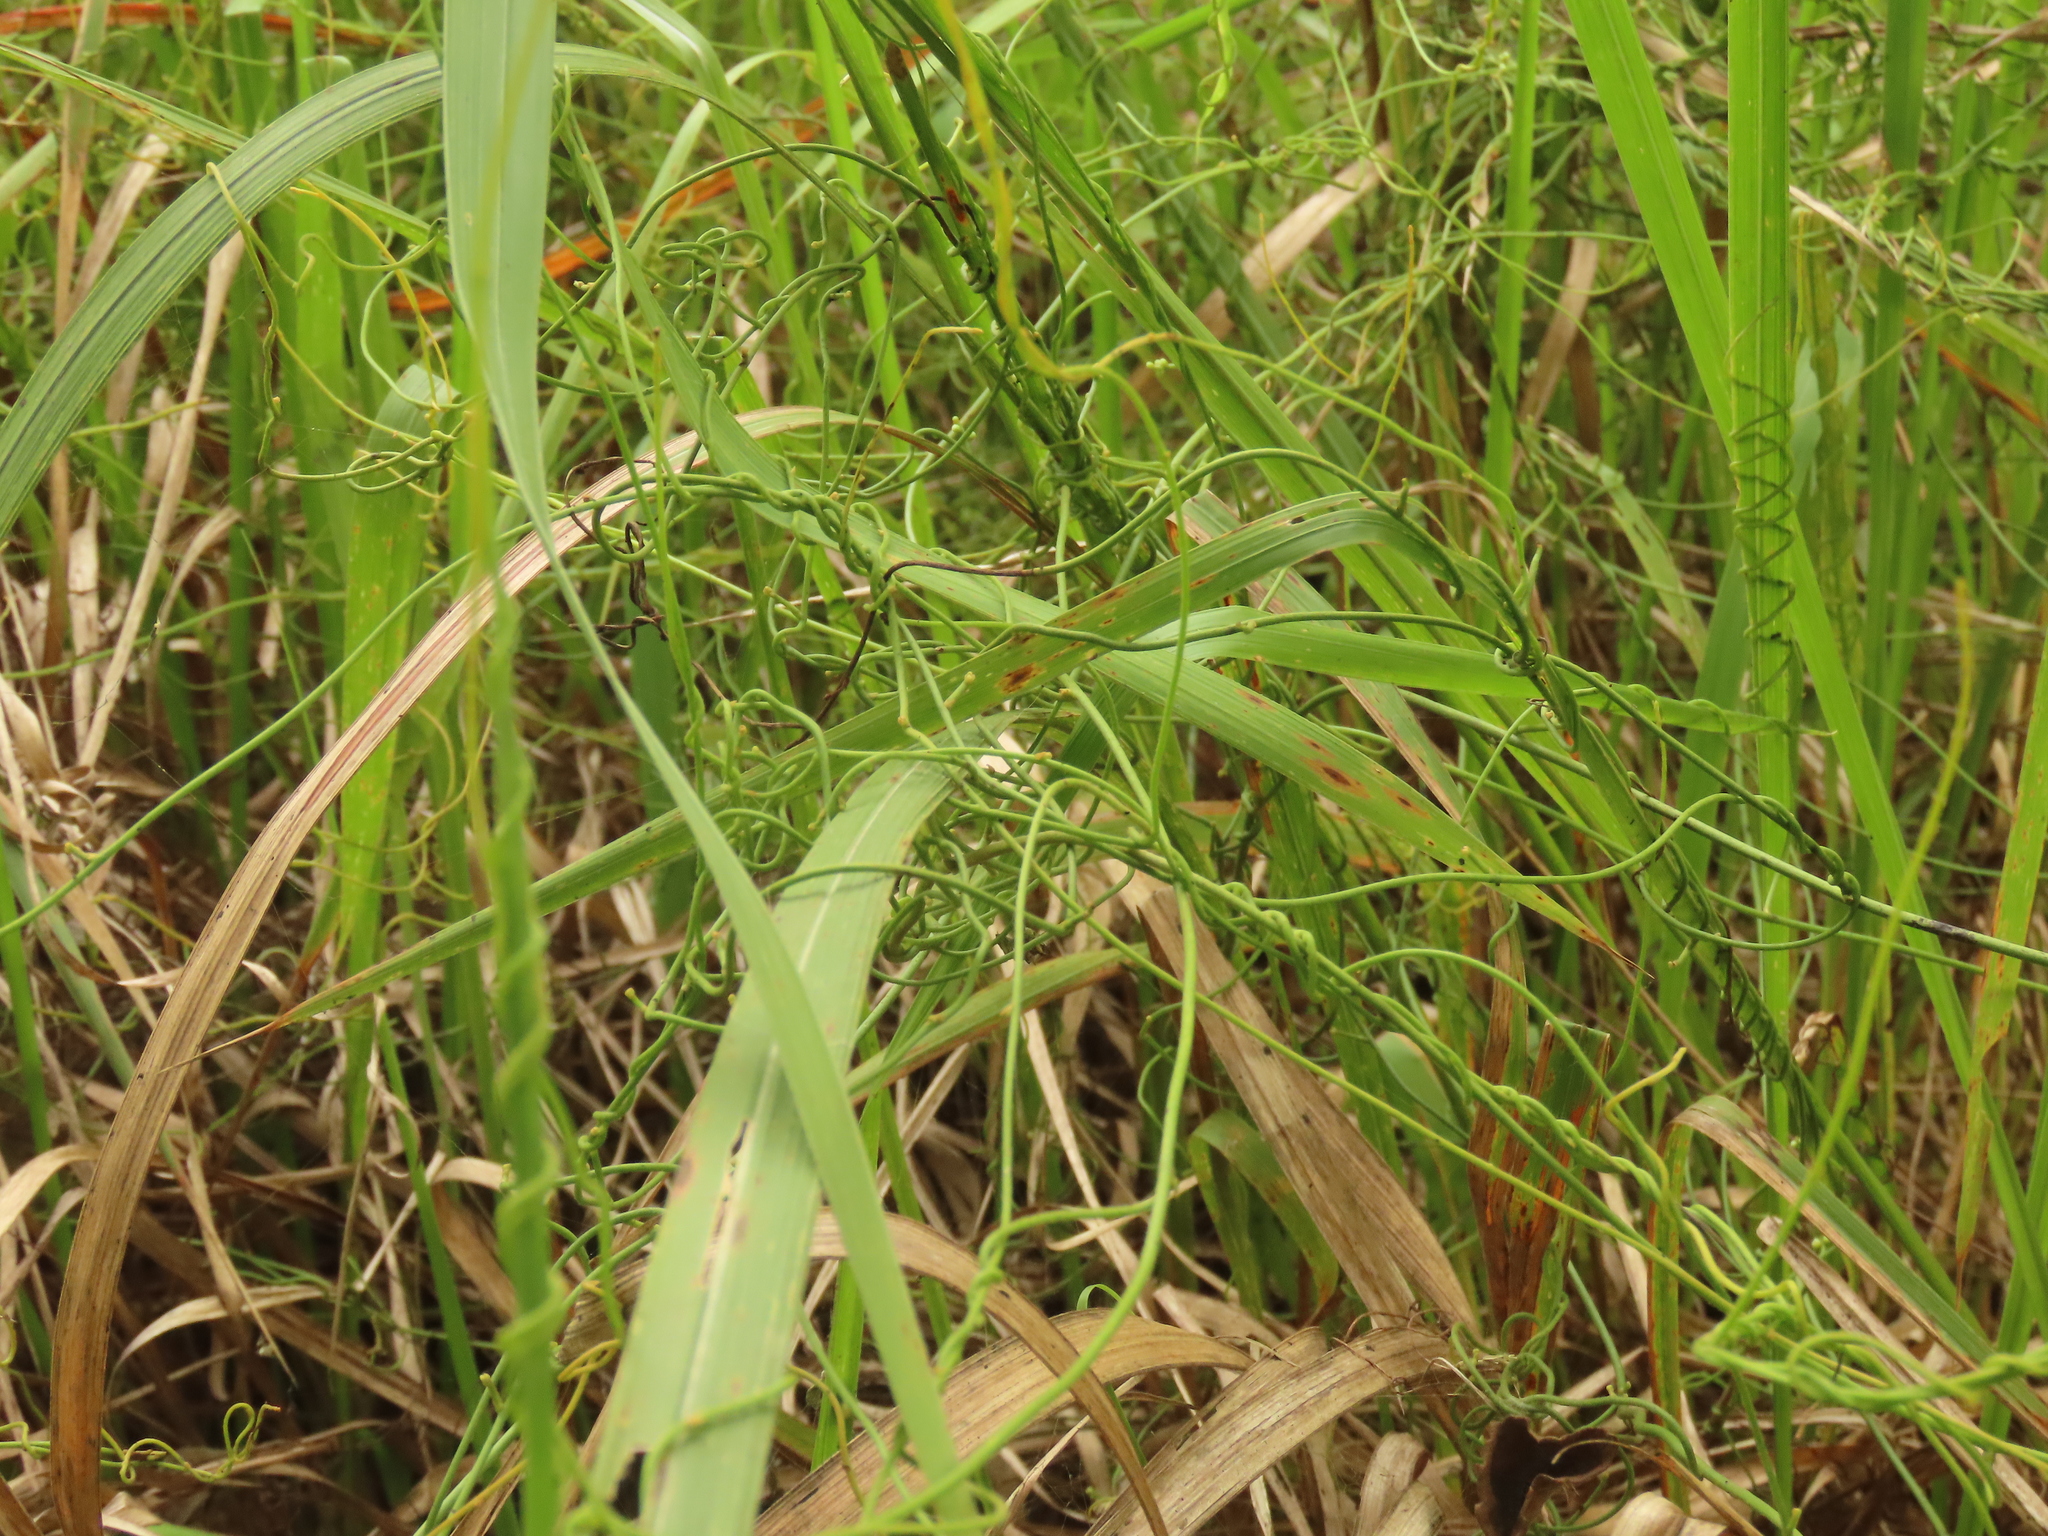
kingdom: Plantae
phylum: Tracheophyta
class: Magnoliopsida
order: Laurales
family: Lauraceae
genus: Cassytha
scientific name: Cassytha filiformis
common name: Dodder-laurel
